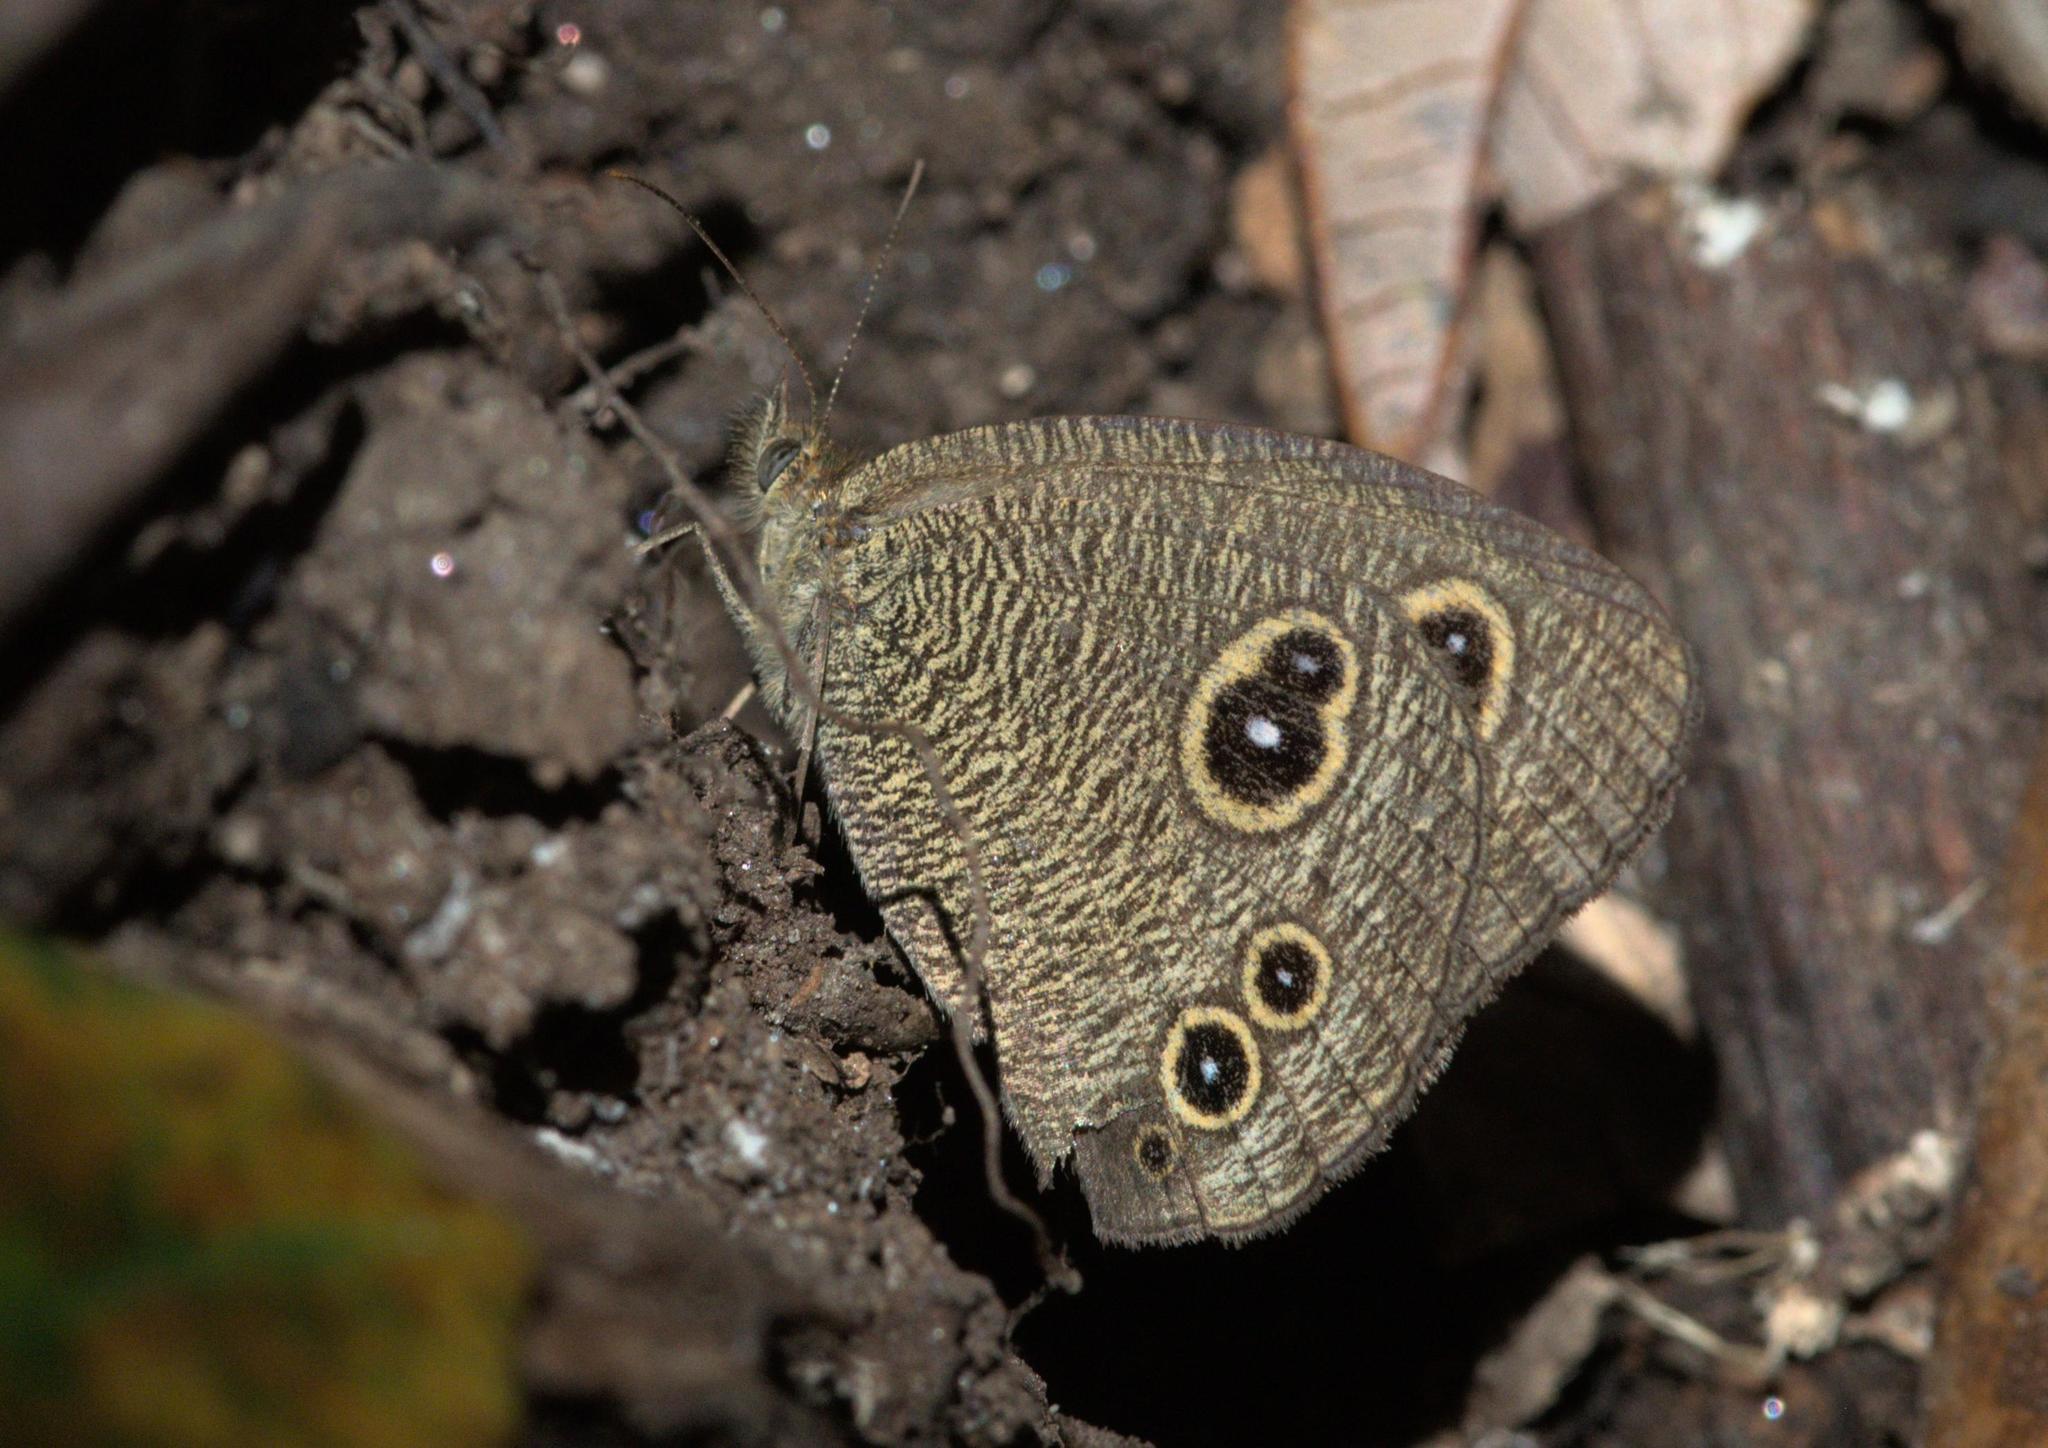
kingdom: Animalia
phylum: Arthropoda
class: Insecta
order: Lepidoptera
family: Nymphalidae
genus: Ypthima
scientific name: Ypthima nikaea
